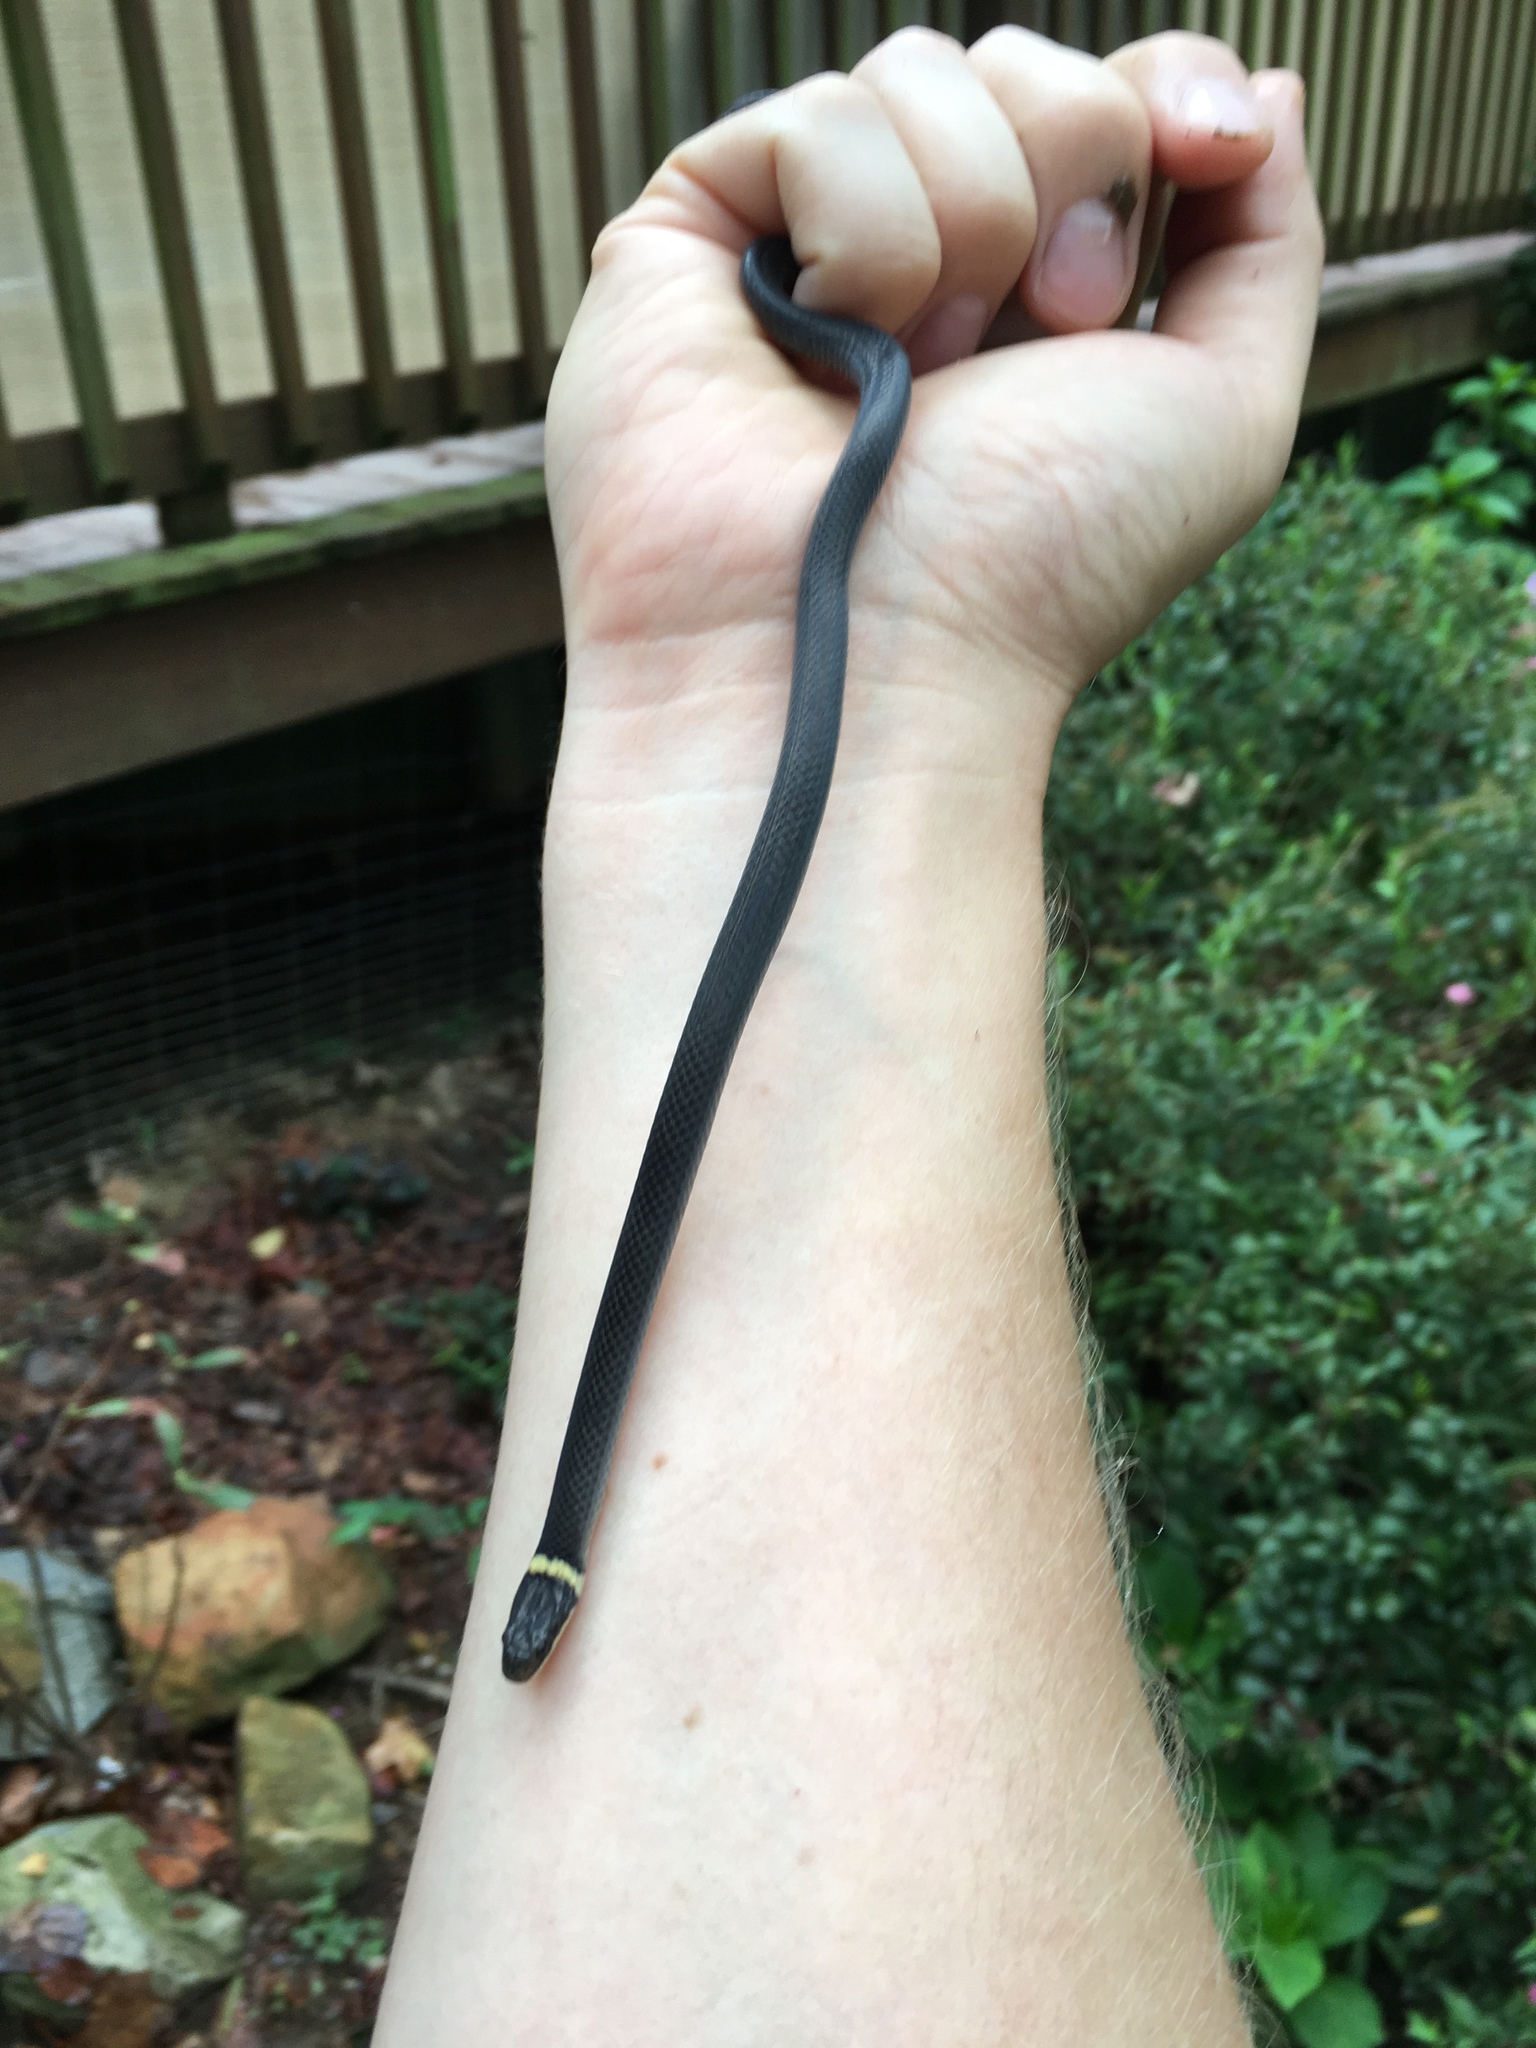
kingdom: Animalia
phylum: Chordata
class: Squamata
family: Colubridae
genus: Diadophis
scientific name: Diadophis punctatus
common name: Ringneck snake
